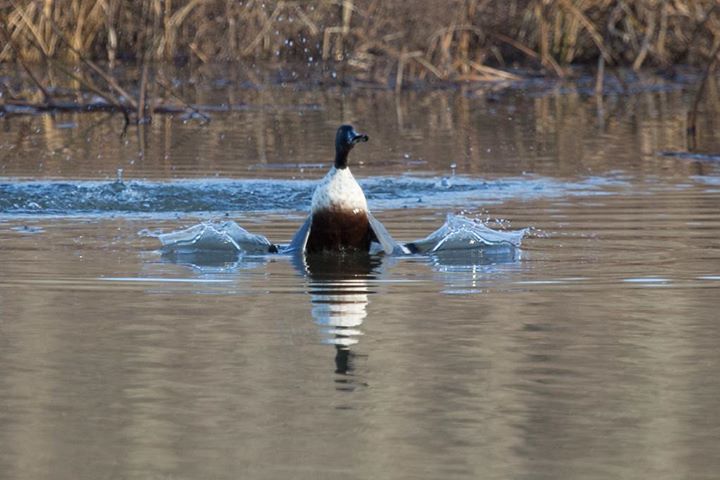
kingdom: Animalia
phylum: Chordata
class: Aves
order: Anseriformes
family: Anatidae
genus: Spatula
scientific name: Spatula clypeata
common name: Northern shoveler
